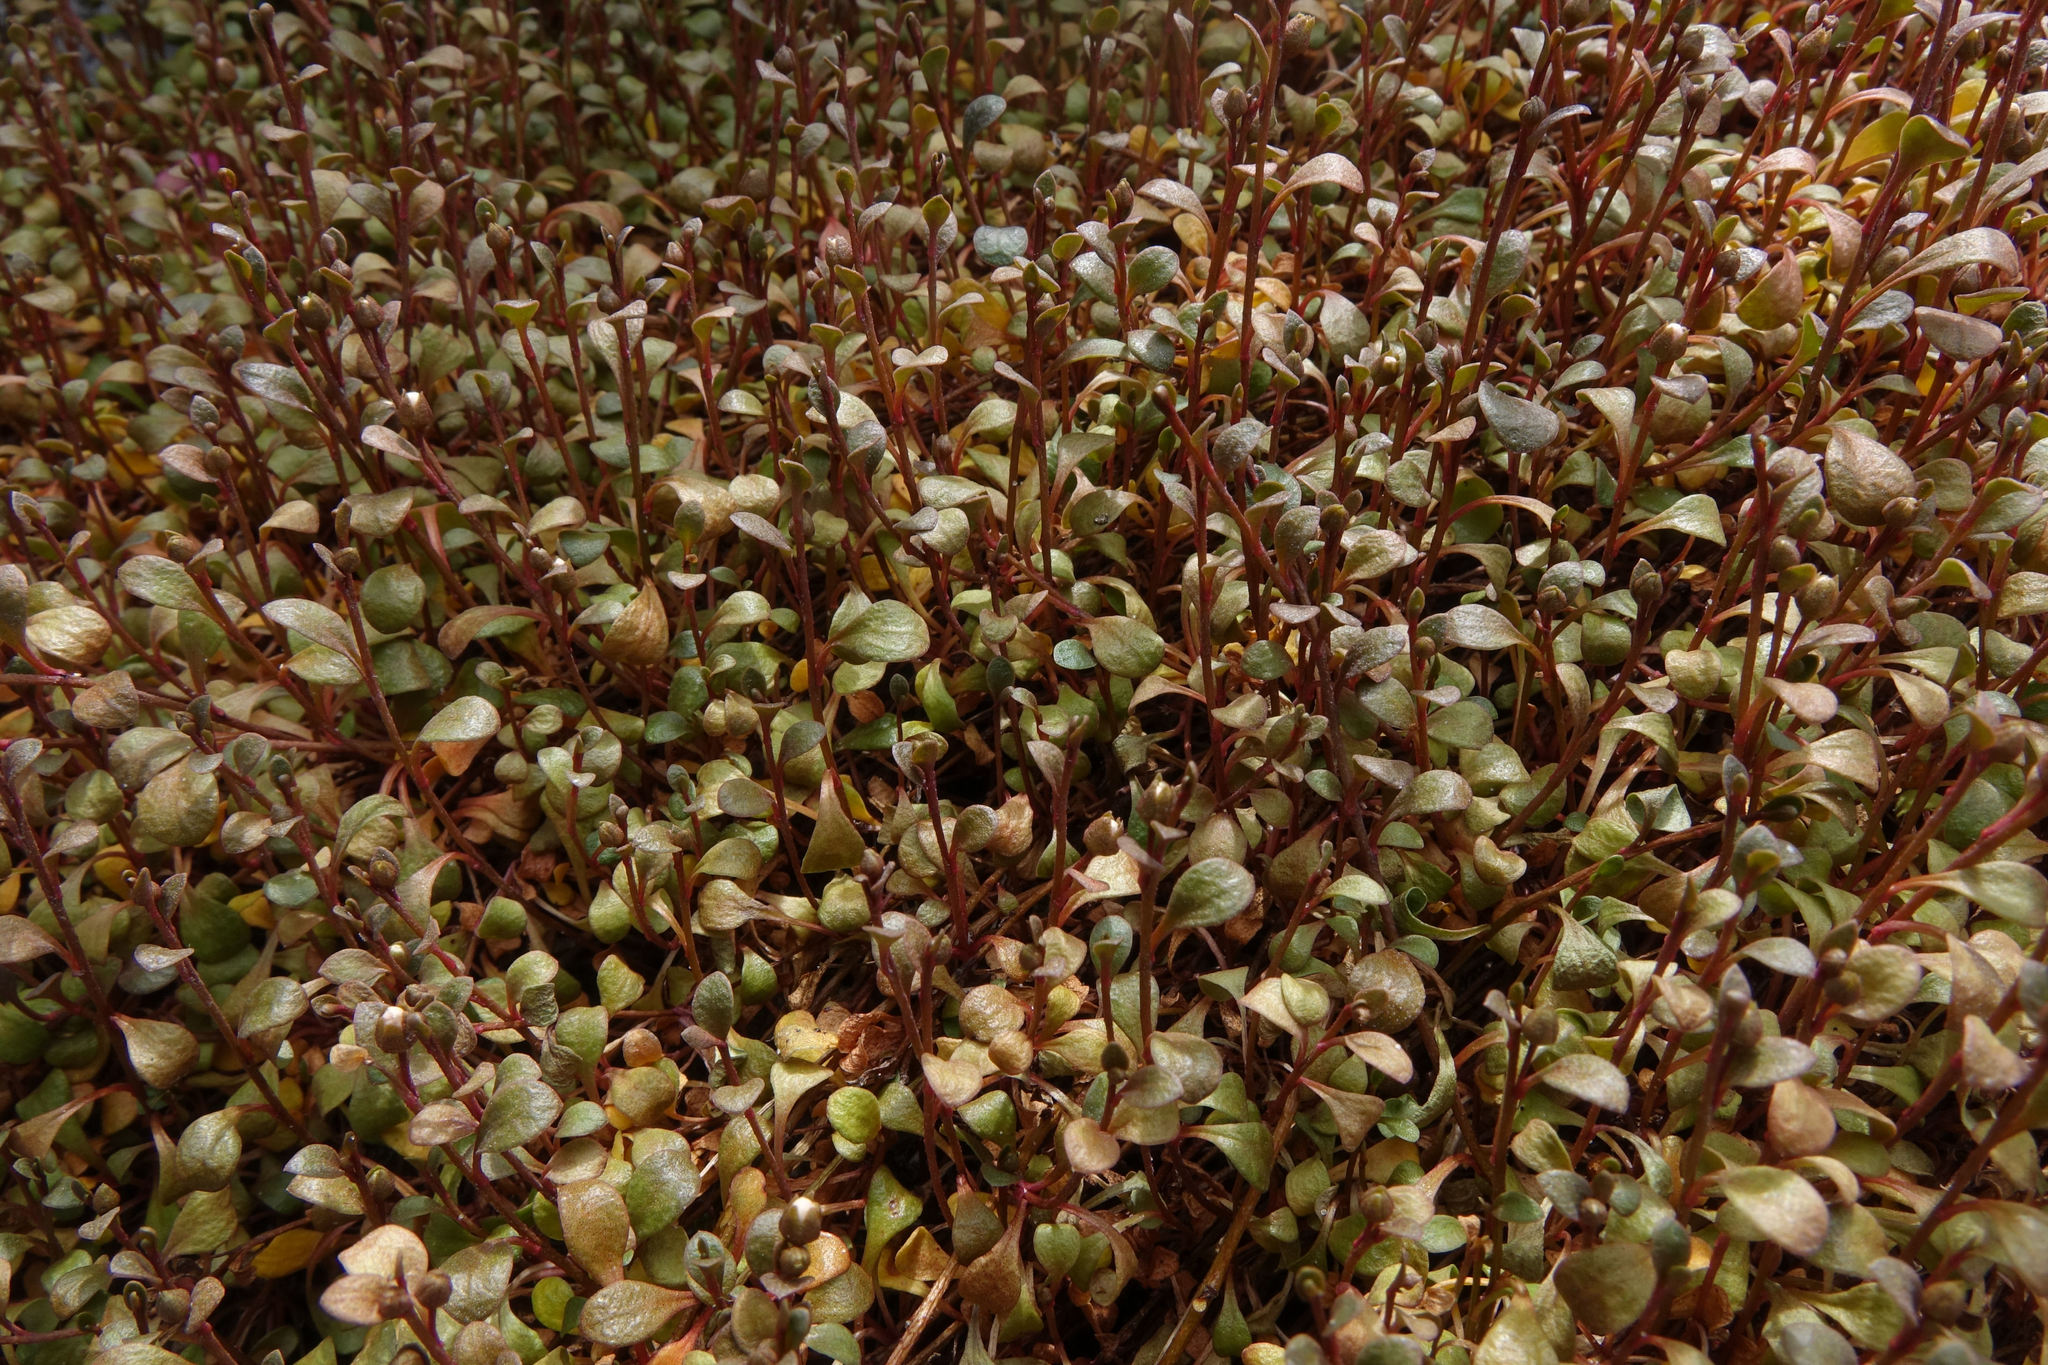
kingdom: Plantae
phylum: Tracheophyta
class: Magnoliopsida
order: Ericales
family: Primulaceae
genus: Samolus
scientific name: Samolus repens
